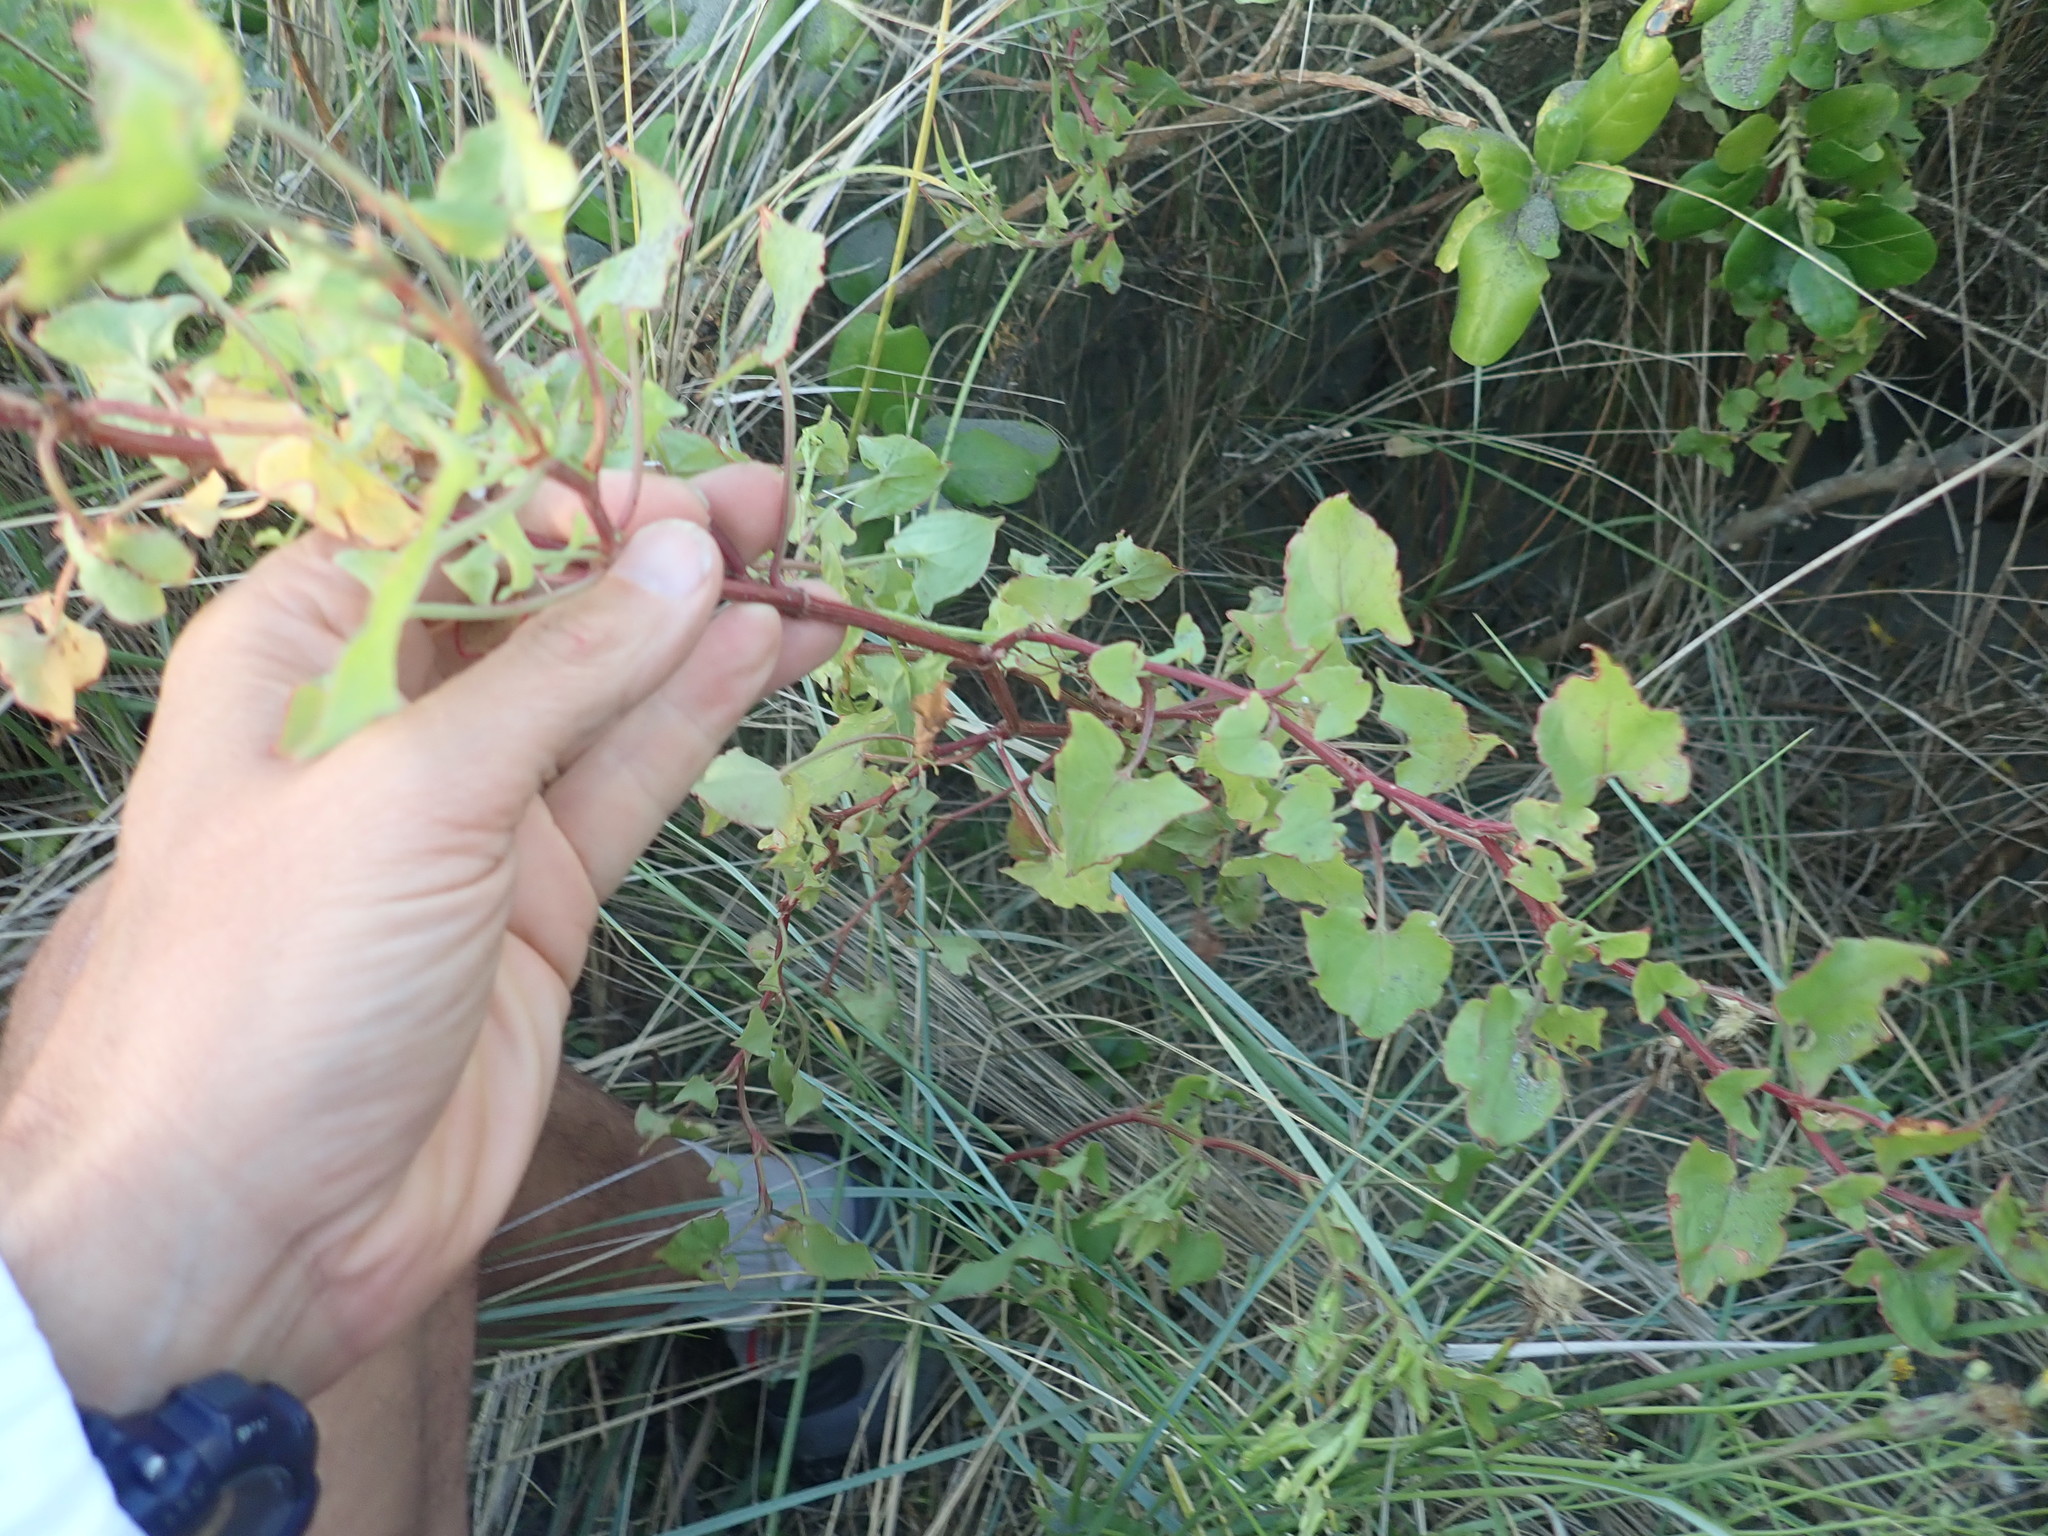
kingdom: Plantae
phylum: Tracheophyta
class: Magnoliopsida
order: Caryophyllales
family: Polygonaceae
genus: Rumex
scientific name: Rumex sagittatus
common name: Climbing dock
